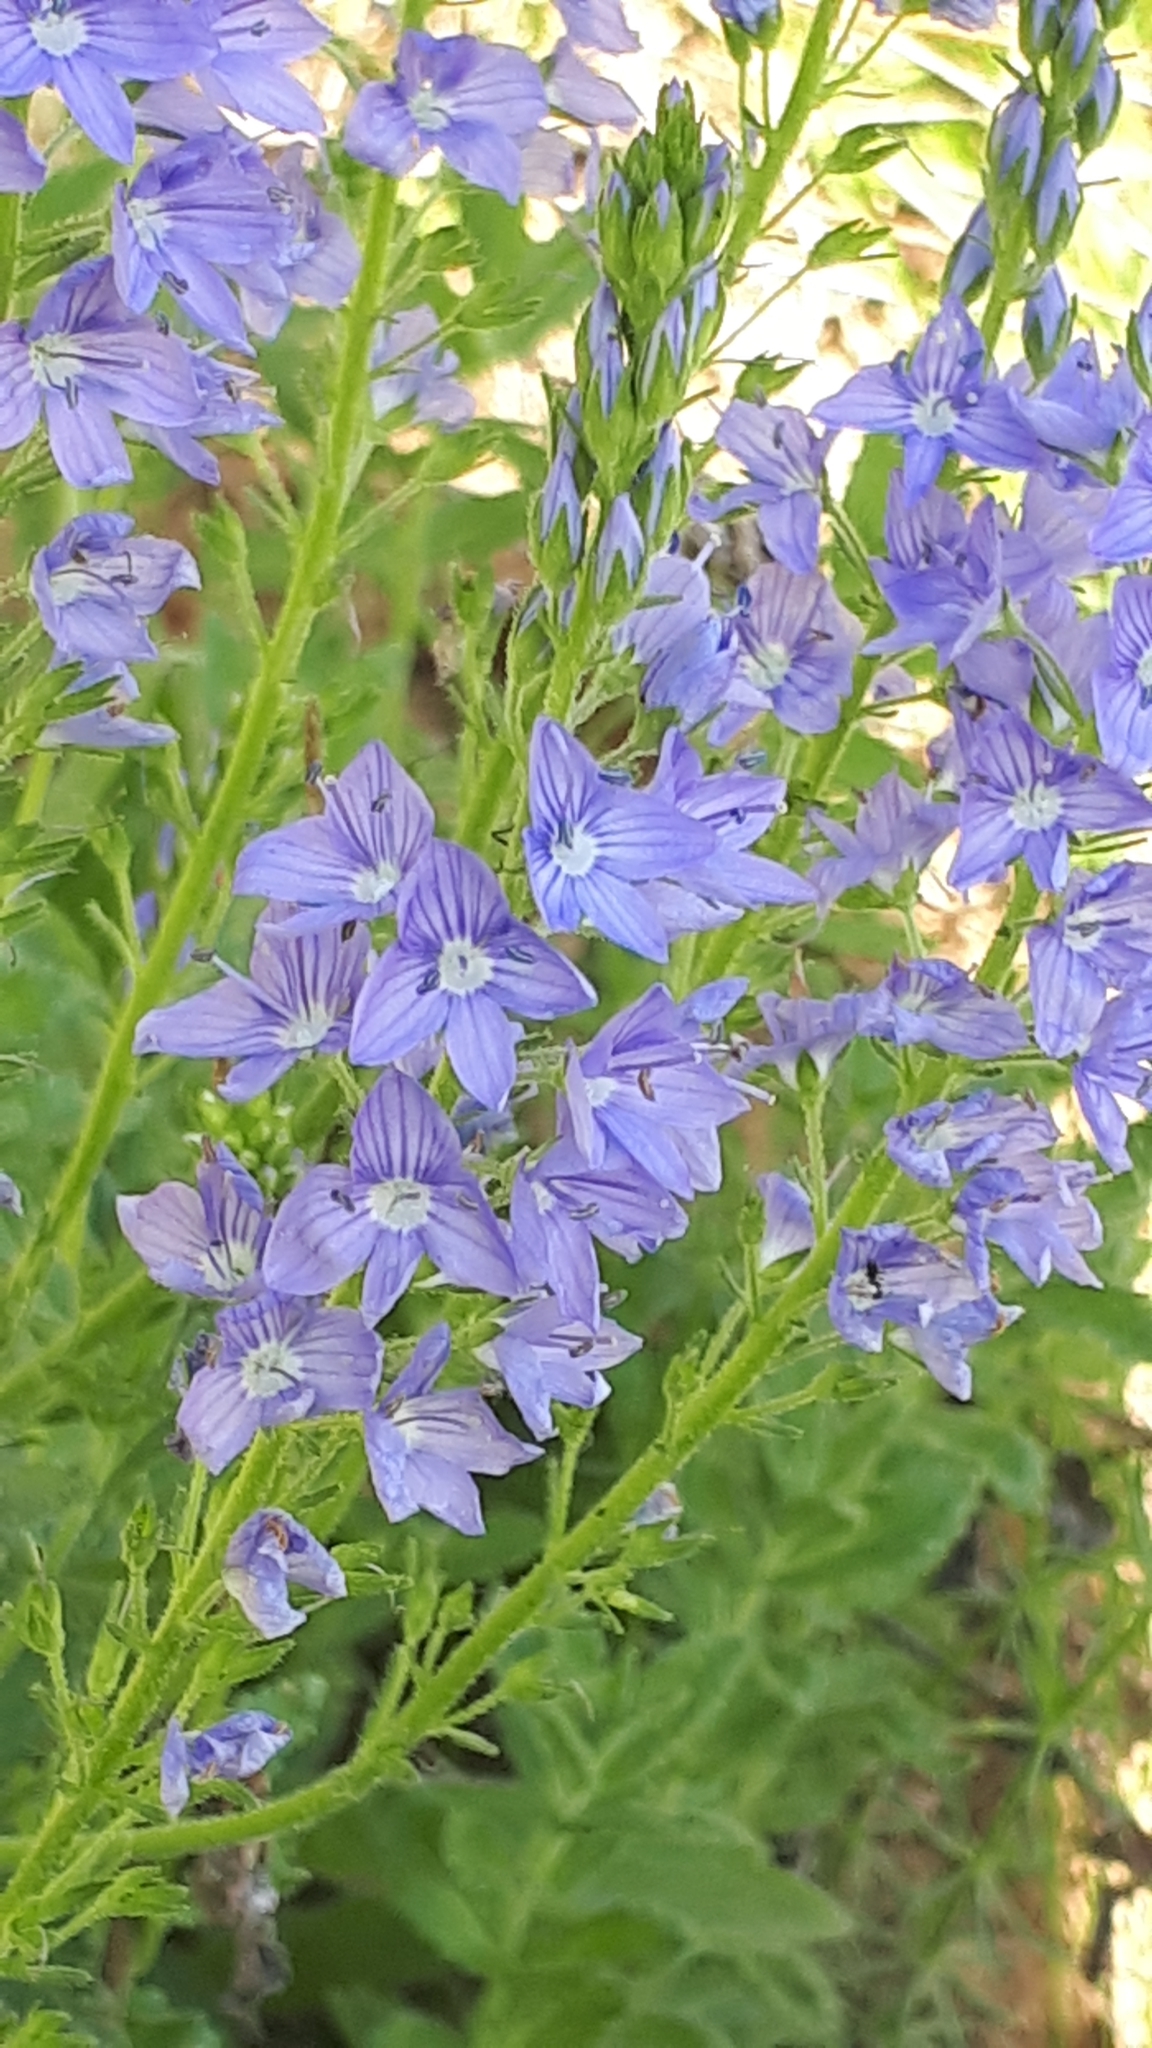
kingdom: Plantae
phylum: Tracheophyta
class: Magnoliopsida
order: Lamiales
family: Plantaginaceae
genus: Veronica
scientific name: Veronica teucrium
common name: Large speedwell
